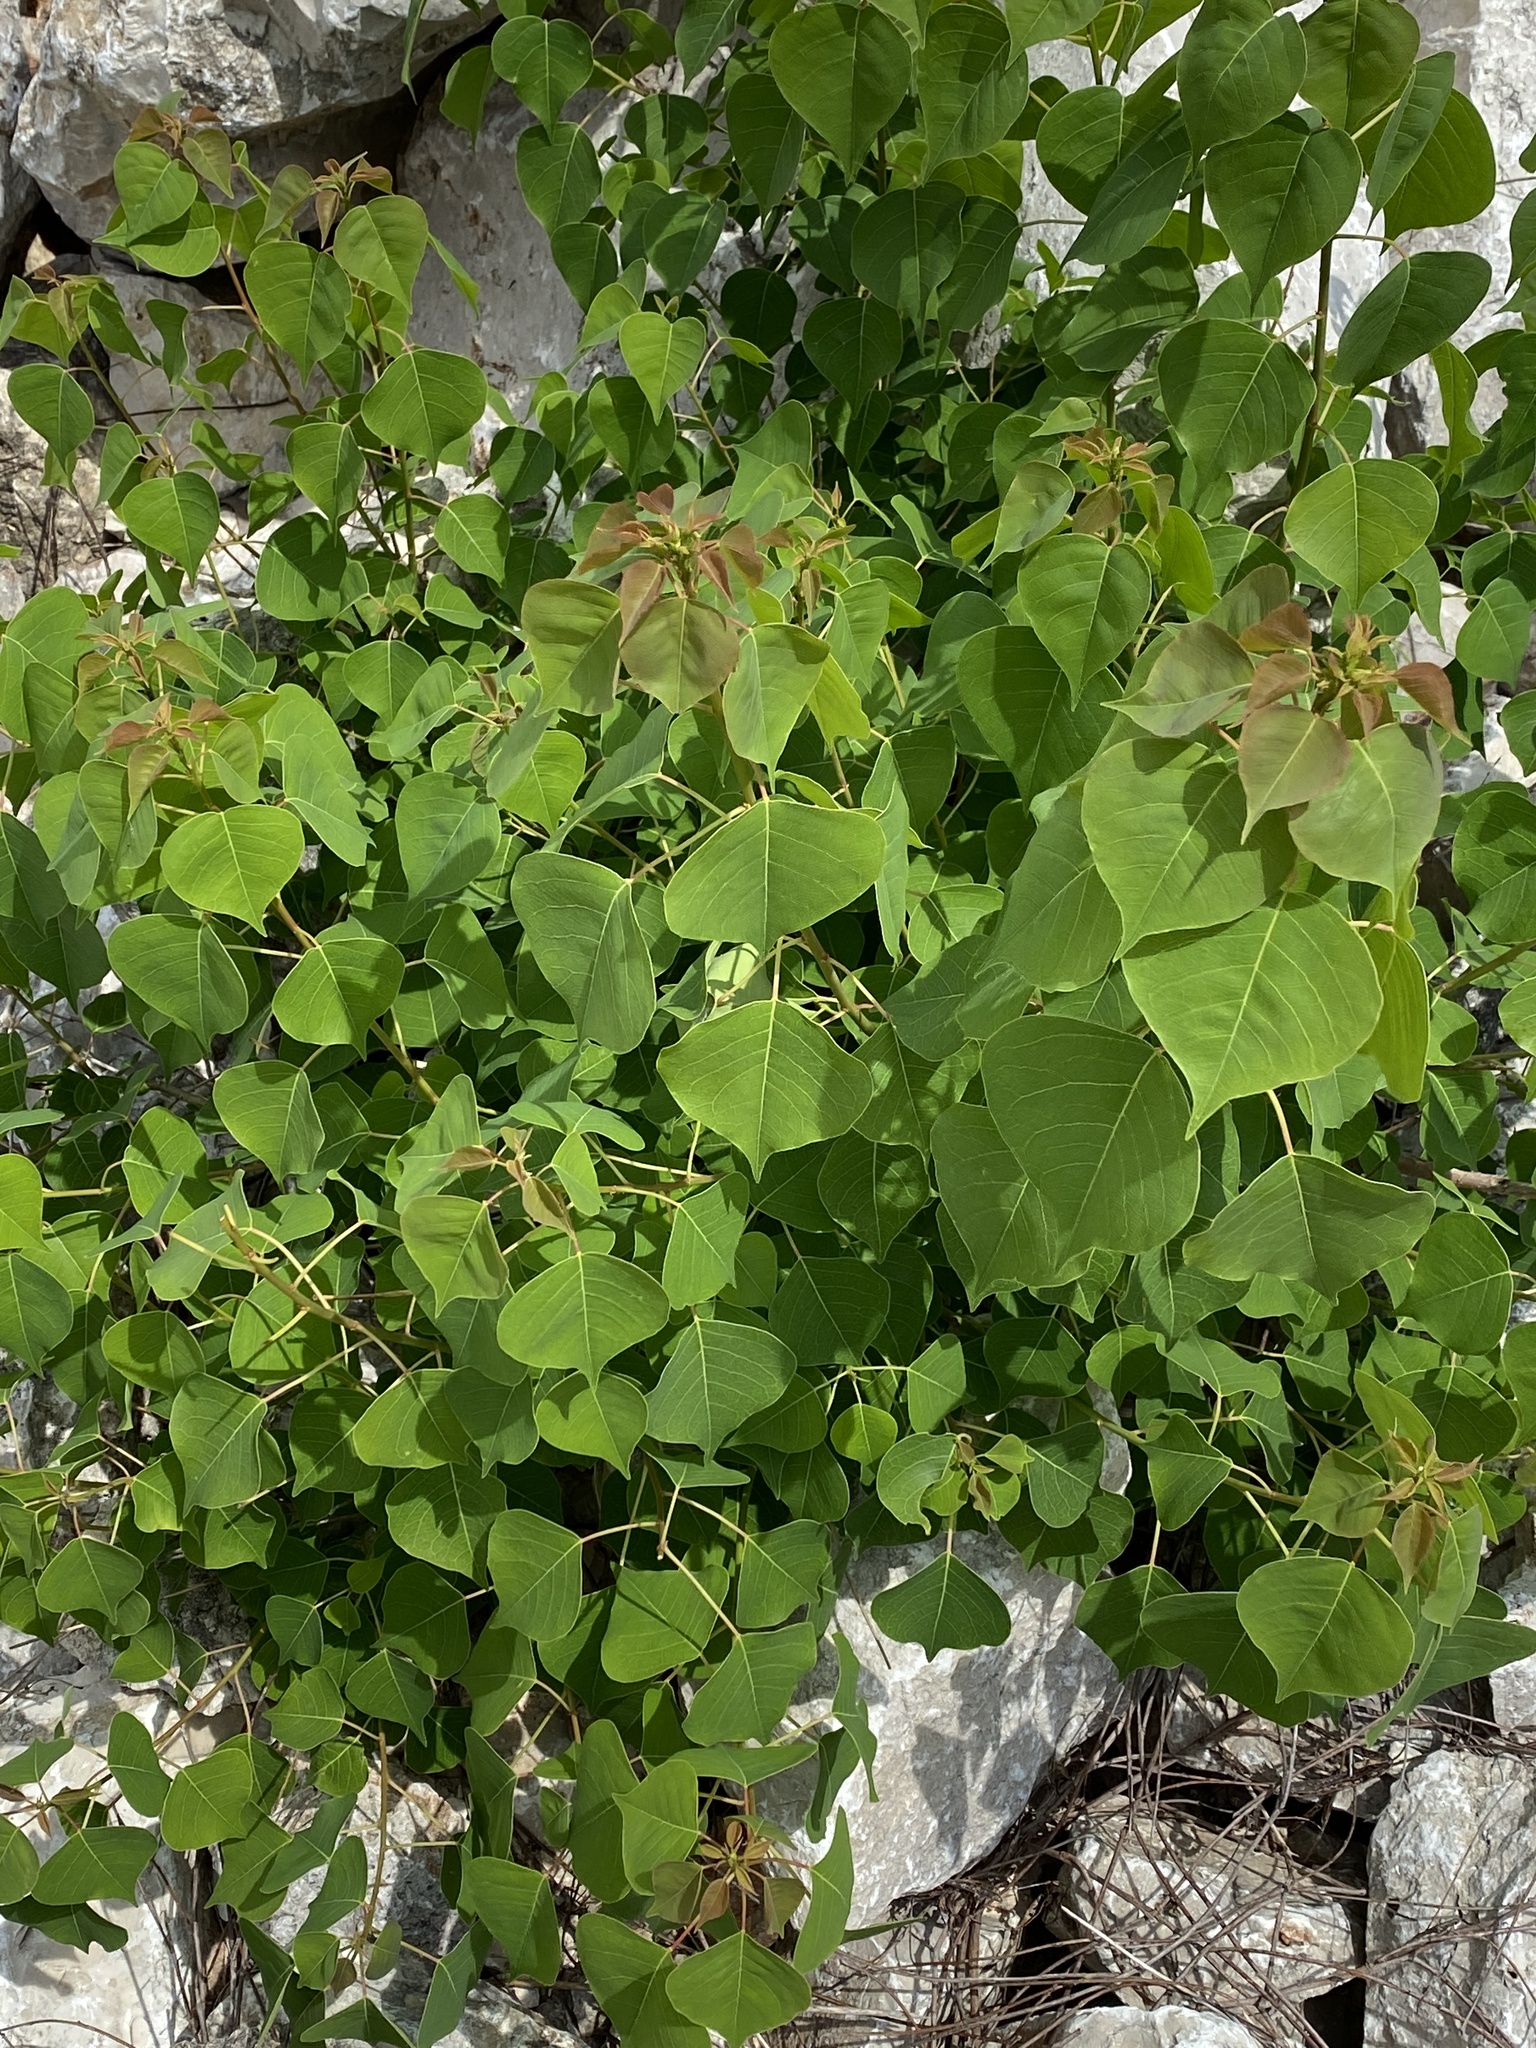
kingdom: Plantae
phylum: Tracheophyta
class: Magnoliopsida
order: Malpighiales
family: Euphorbiaceae
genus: Triadica
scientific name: Triadica sebifera
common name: Chinese tallow
